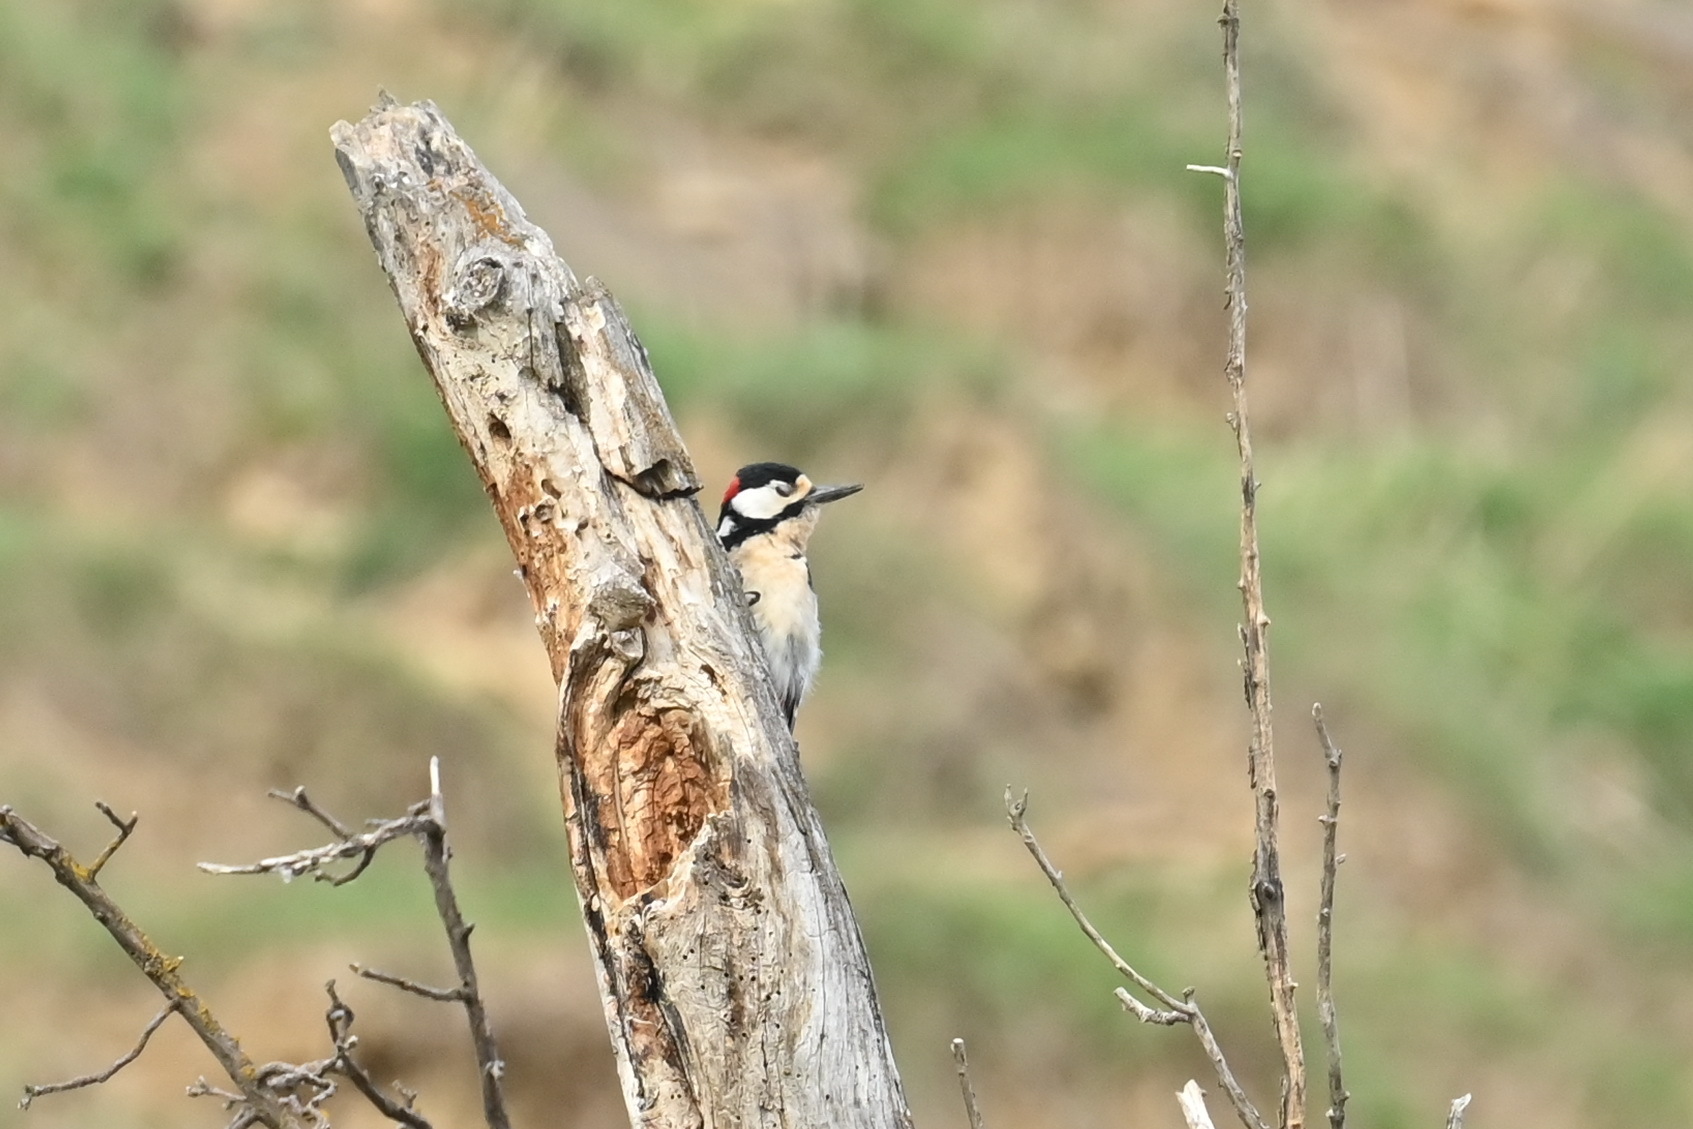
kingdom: Animalia
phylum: Chordata
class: Aves
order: Piciformes
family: Picidae
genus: Dendrocopos
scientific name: Dendrocopos major
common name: Great spotted woodpecker
